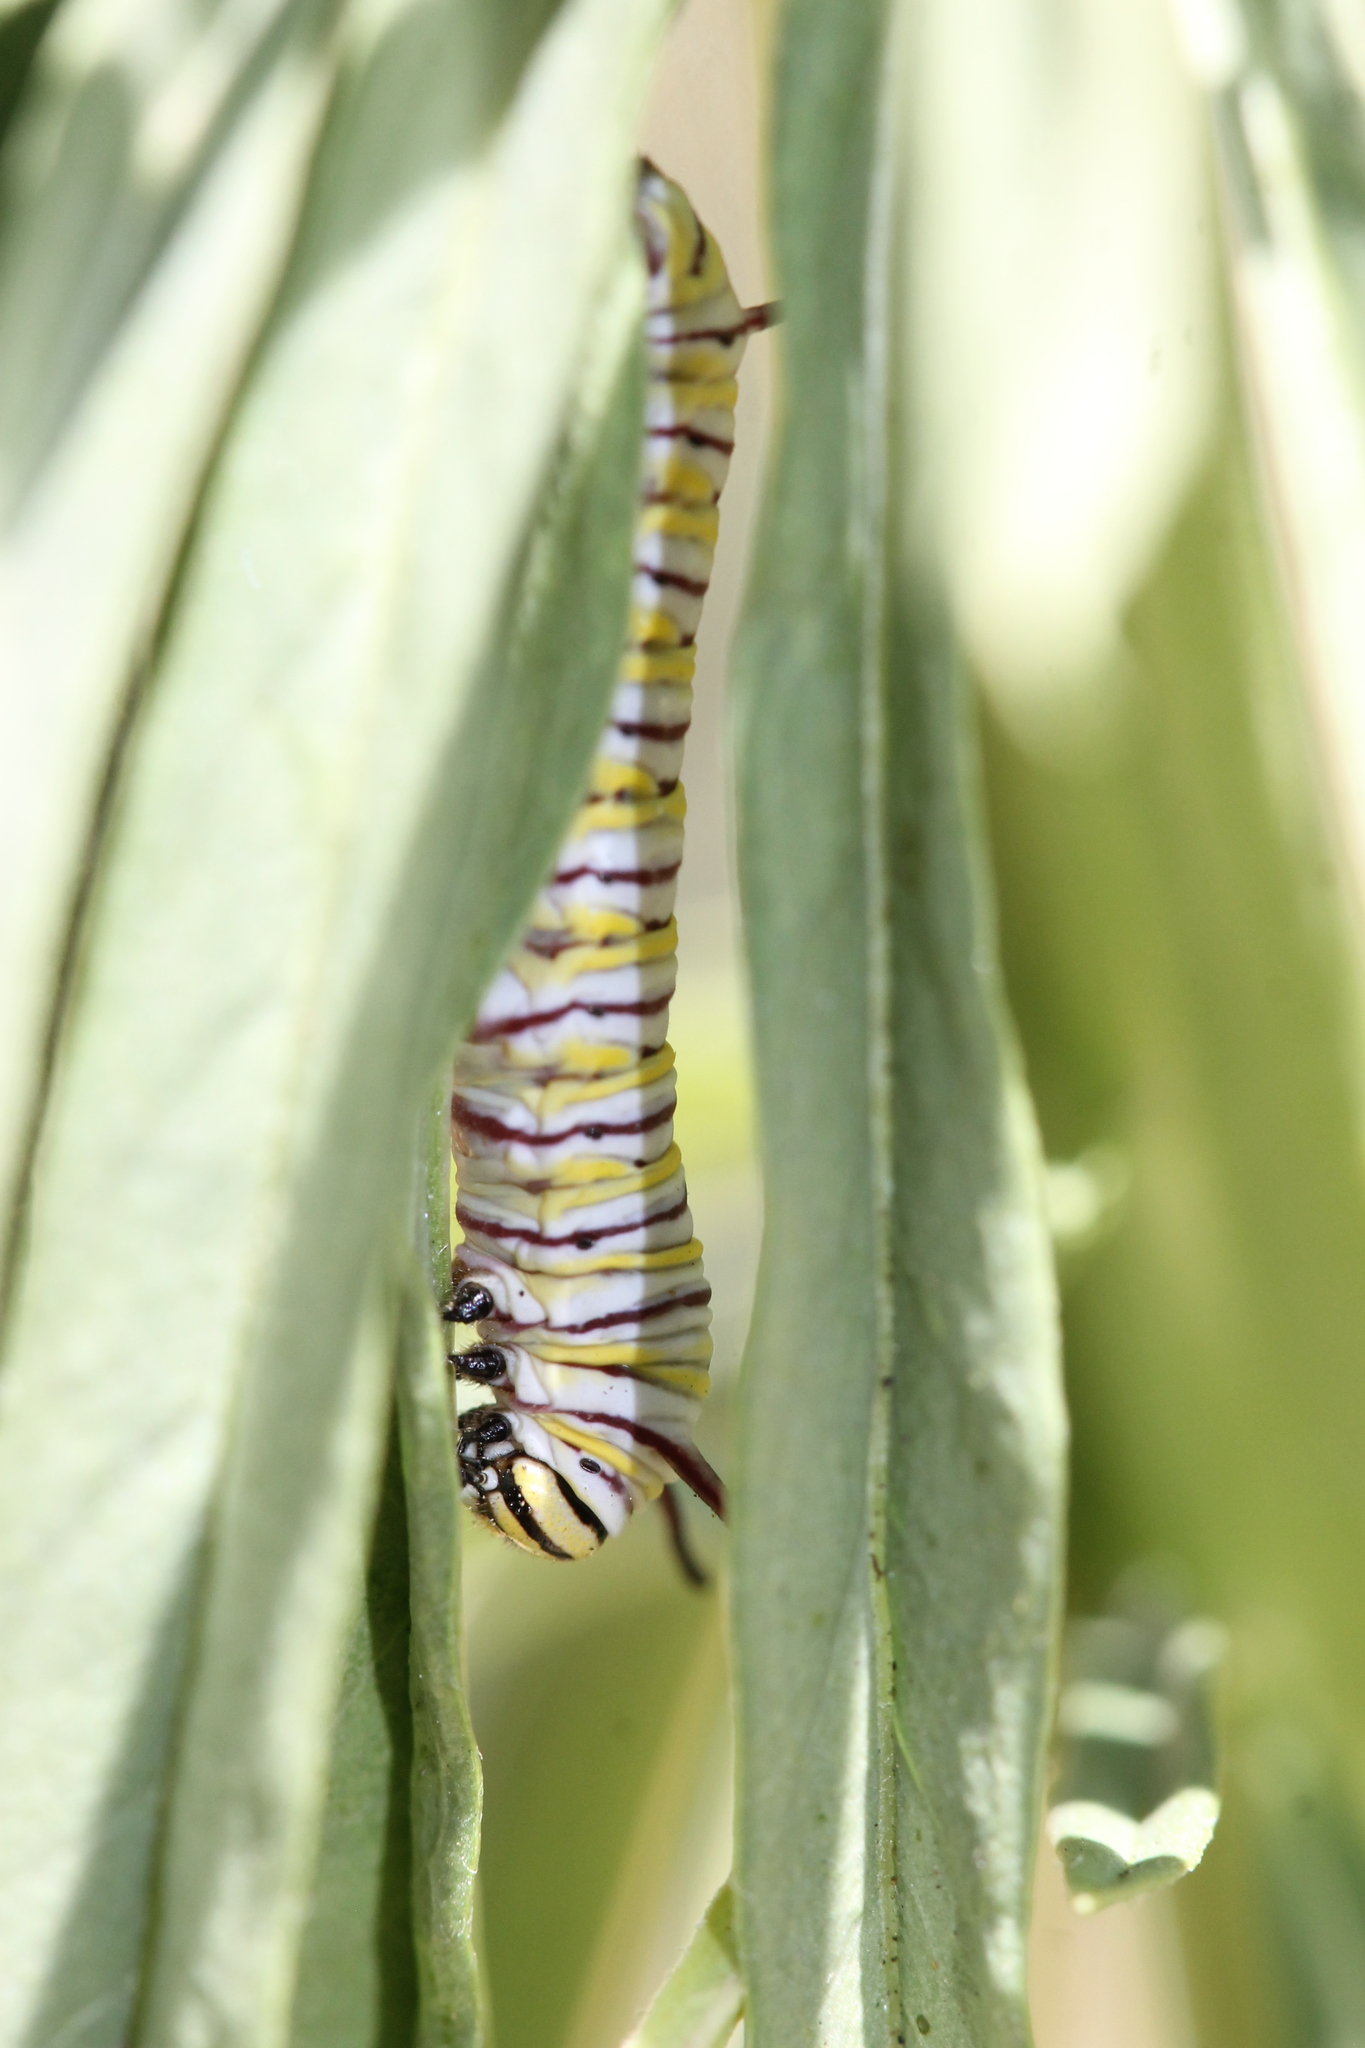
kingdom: Animalia
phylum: Arthropoda
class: Insecta
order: Lepidoptera
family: Nymphalidae
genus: Danaus
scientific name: Danaus plexippus
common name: Monarch
